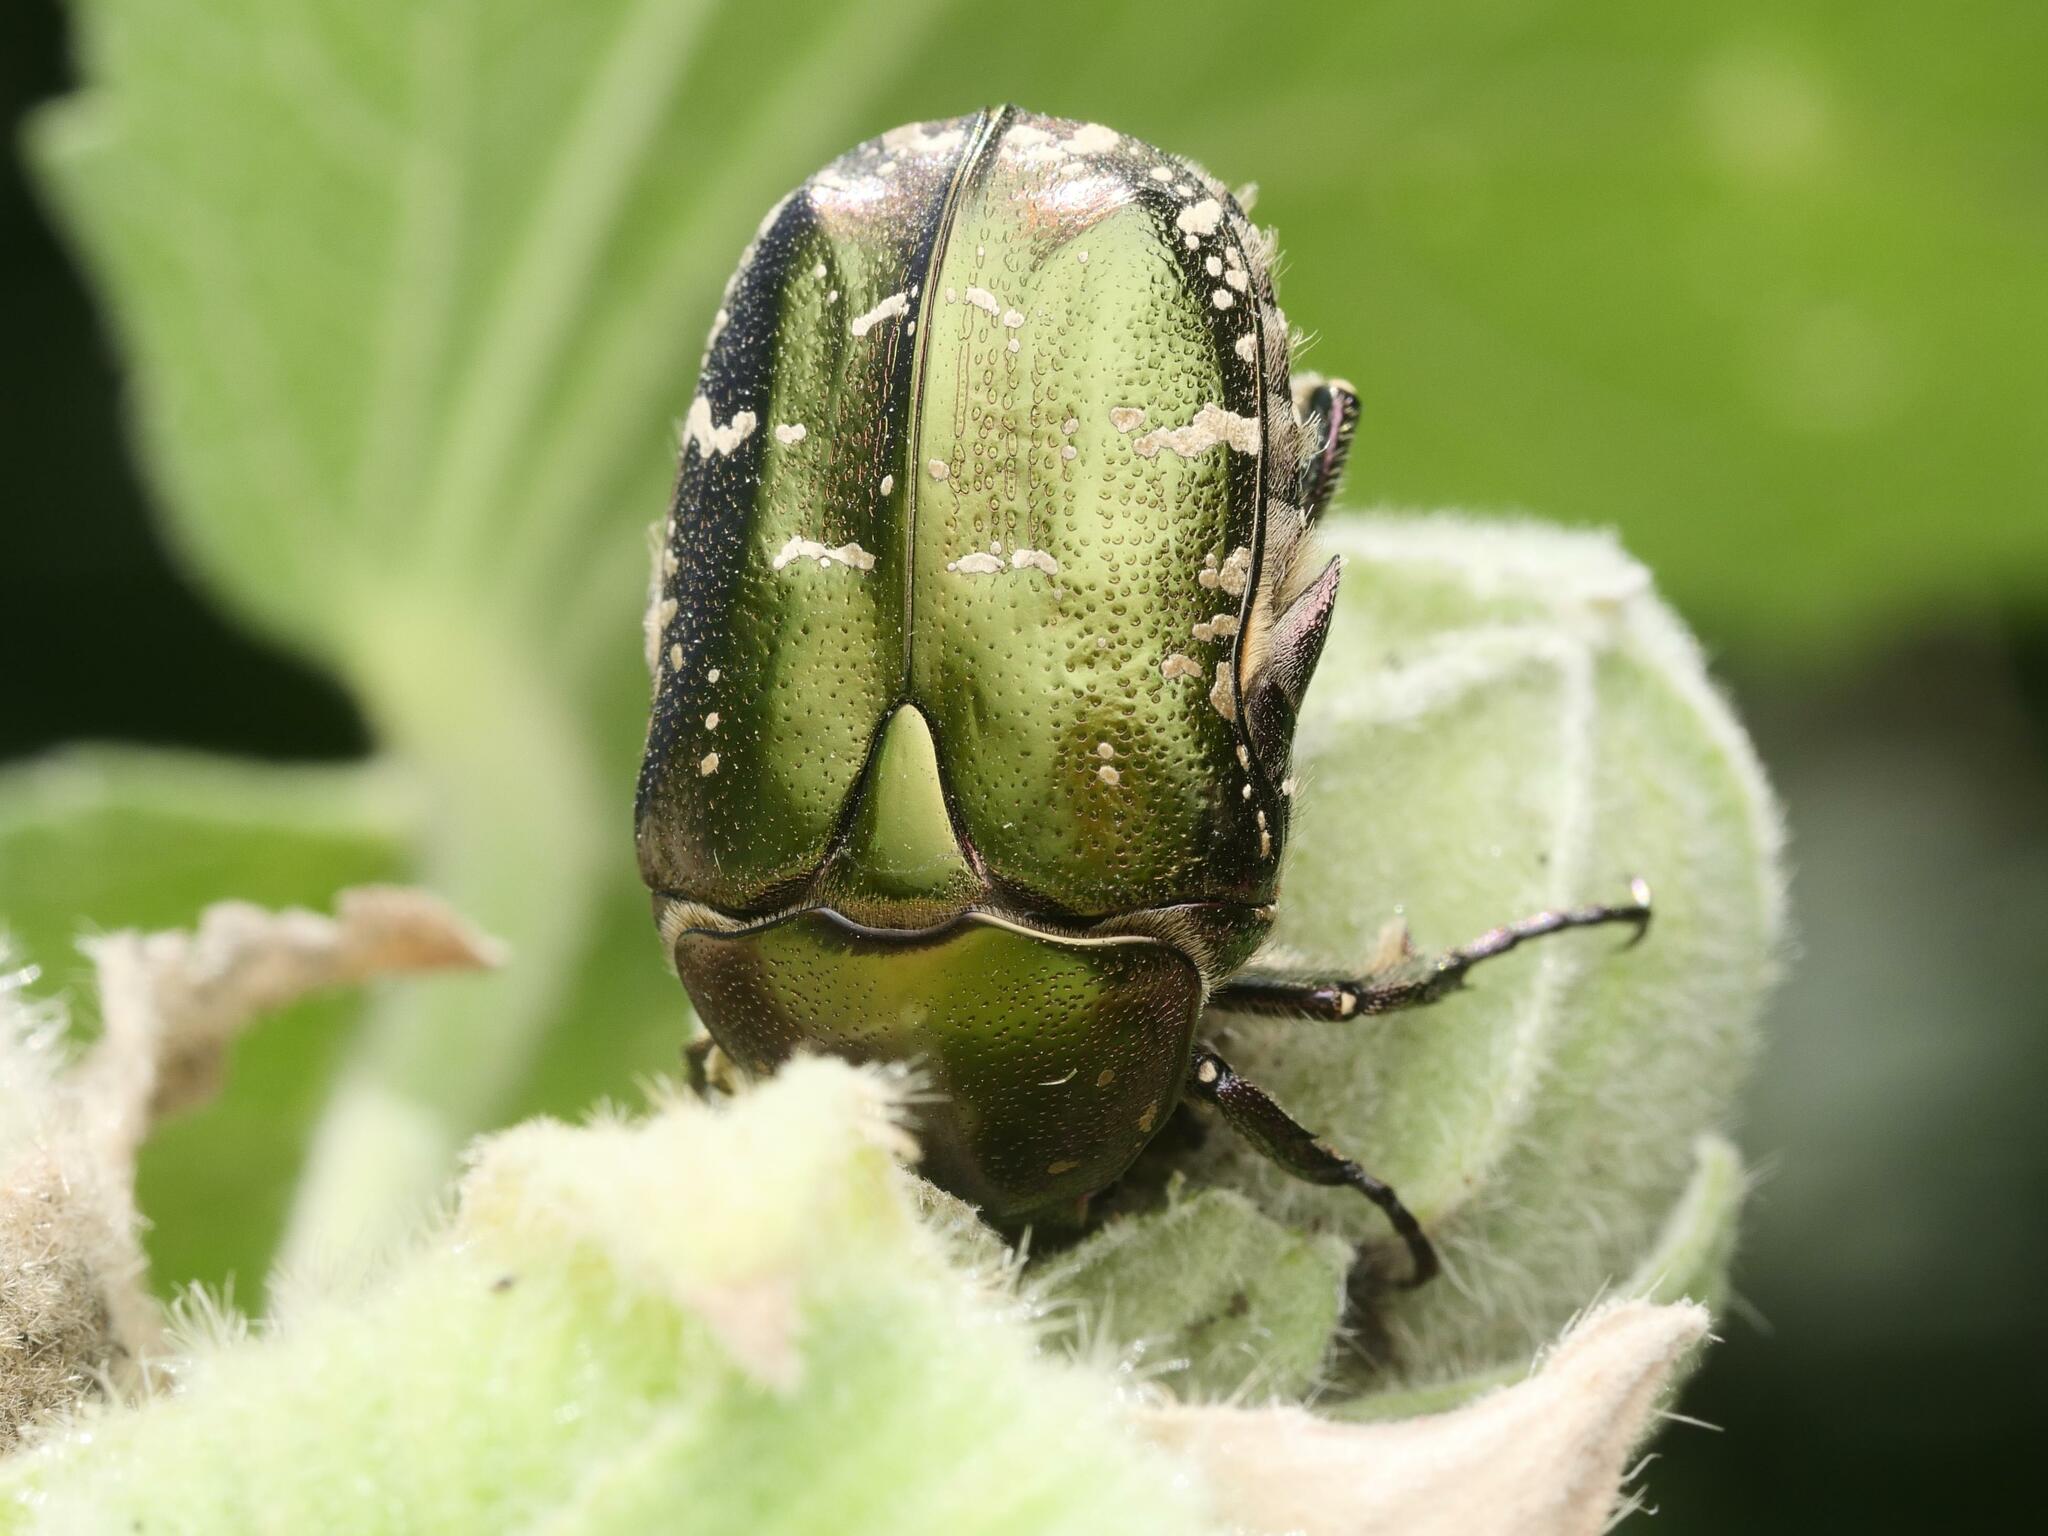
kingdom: Animalia
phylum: Arthropoda
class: Insecta
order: Coleoptera
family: Scarabaeidae
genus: Protaetia
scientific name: Protaetia cuprea
